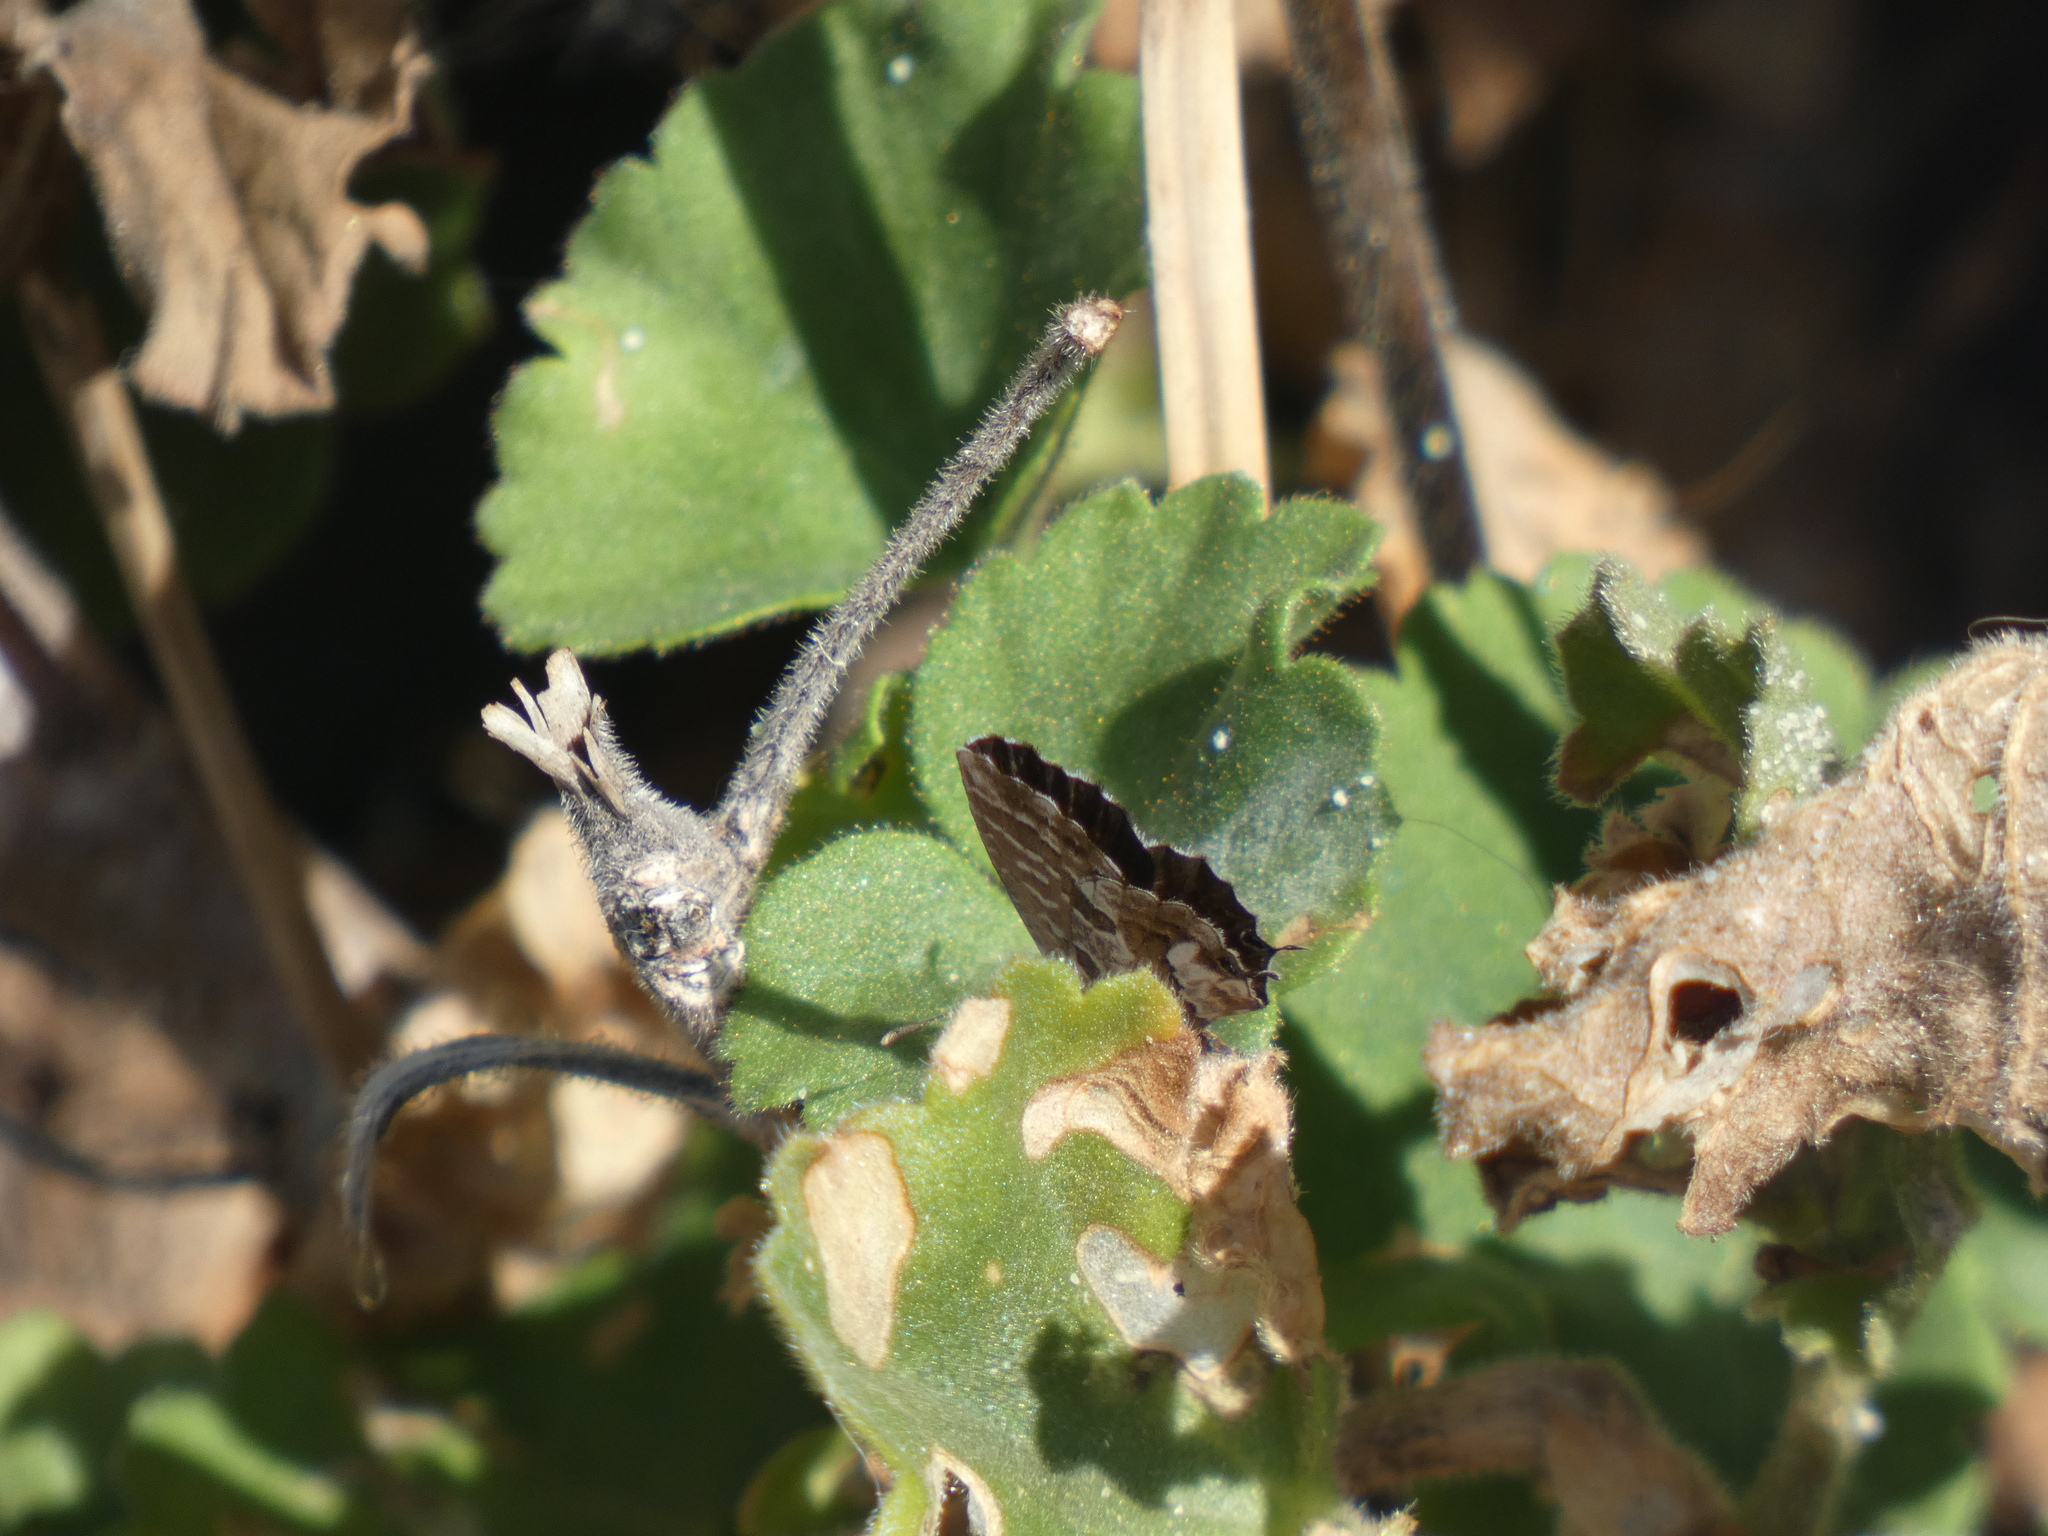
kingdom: Animalia
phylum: Arthropoda
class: Insecta
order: Lepidoptera
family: Lycaenidae
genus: Cacyreus
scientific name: Cacyreus marshalli
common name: Geranium bronze
